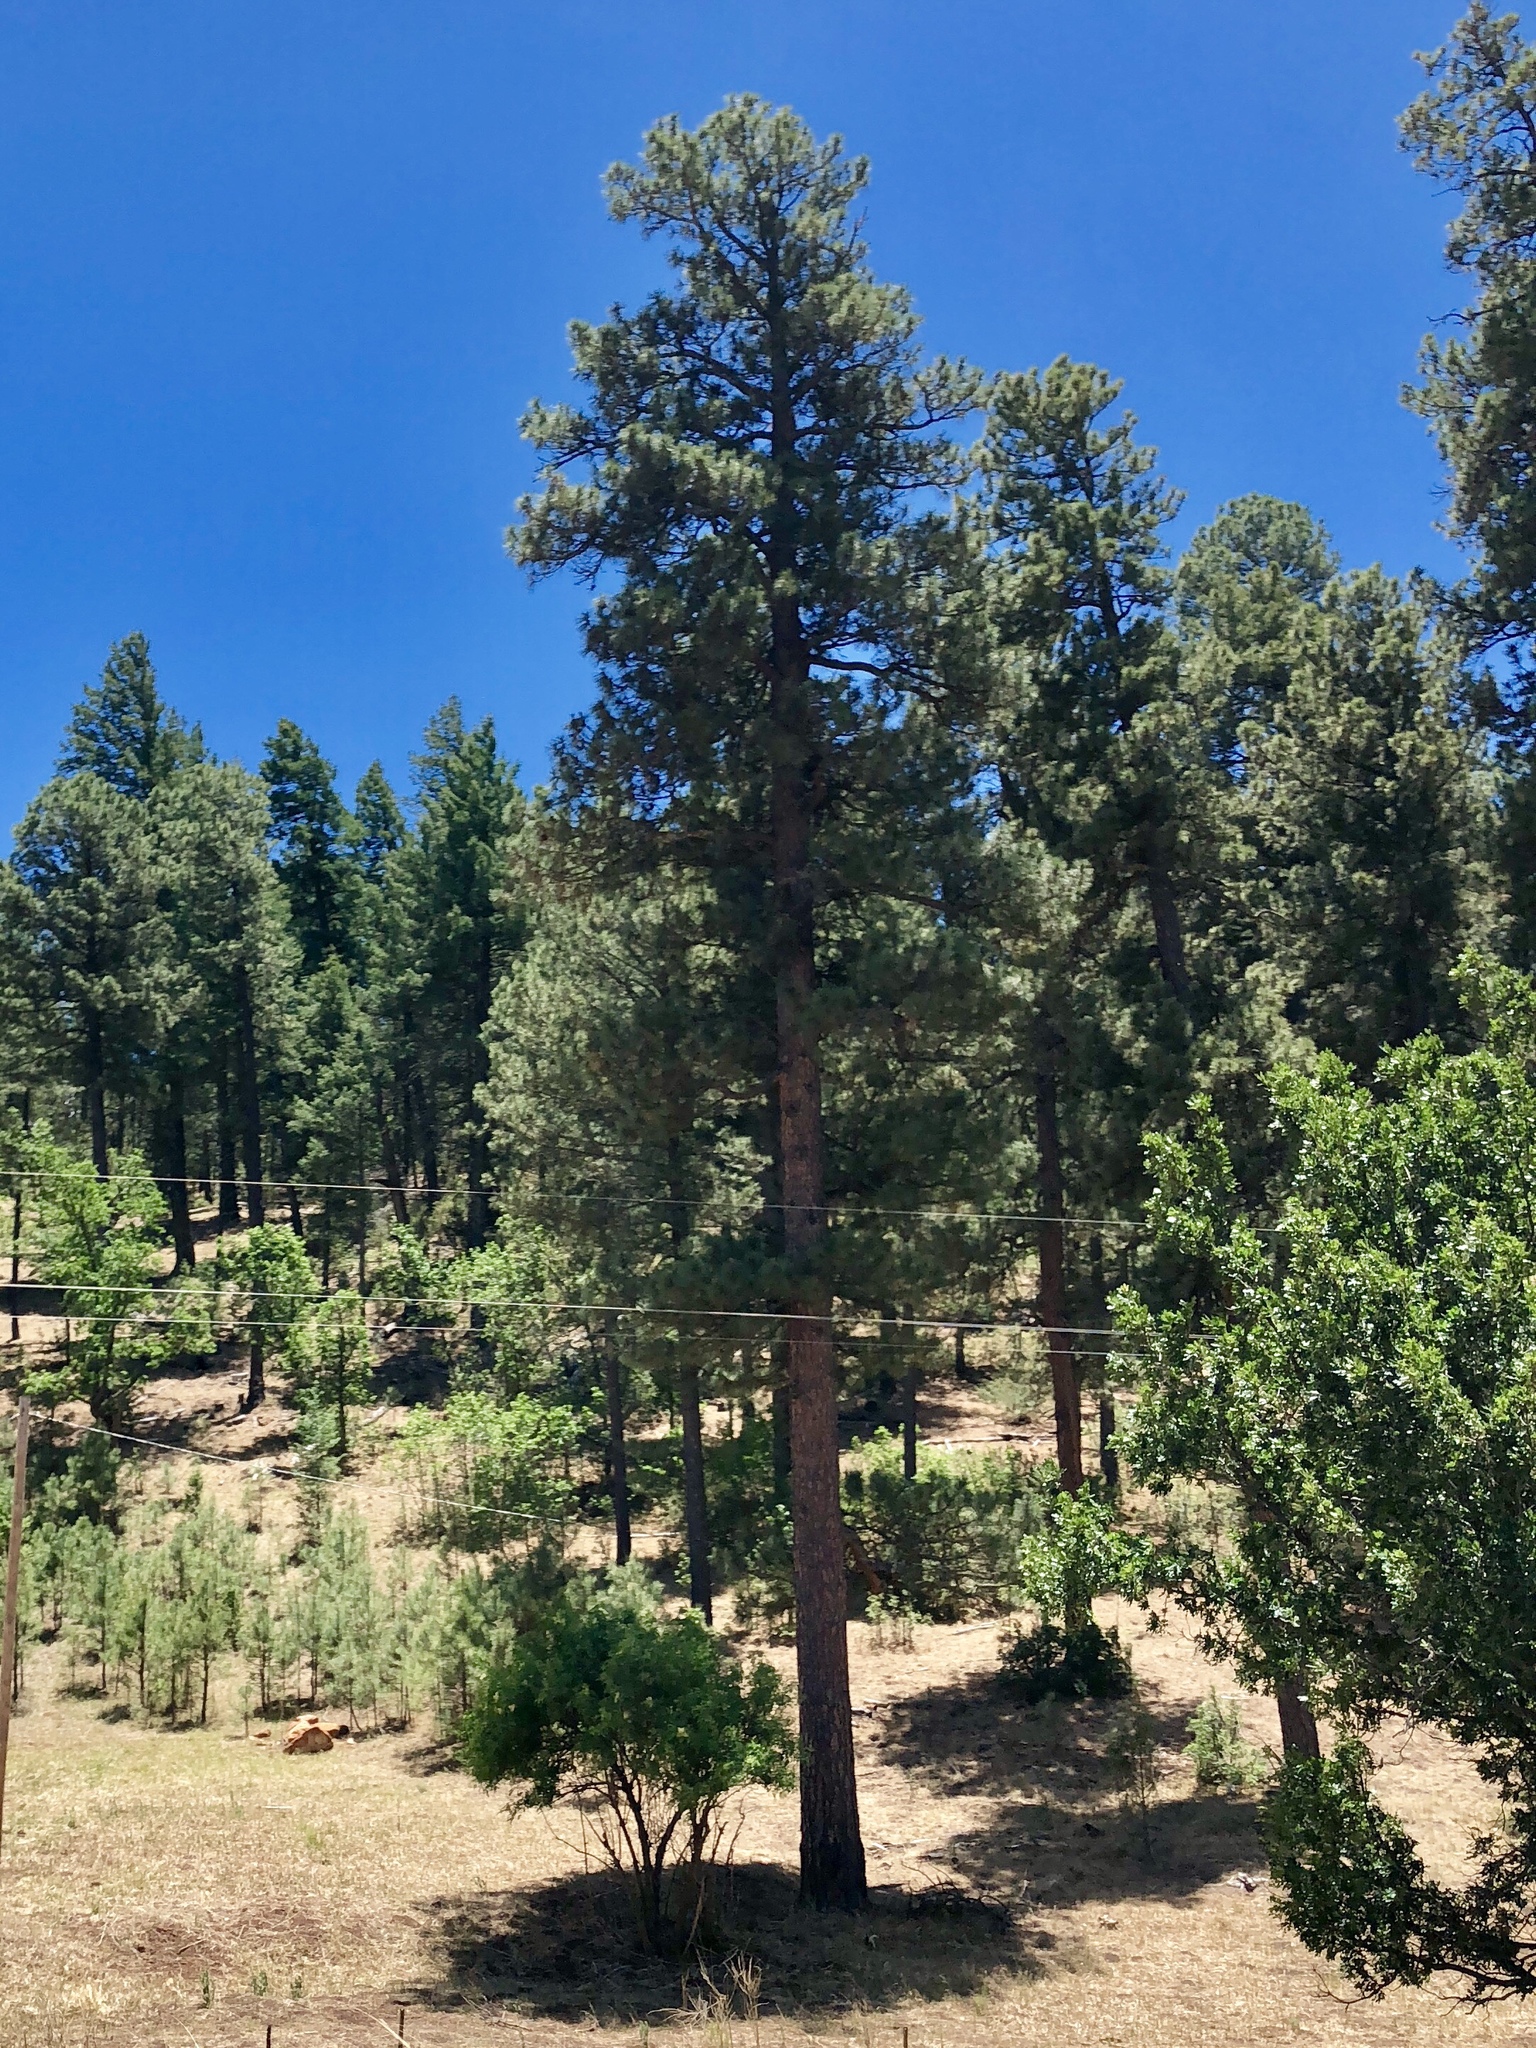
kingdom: Plantae
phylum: Tracheophyta
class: Pinopsida
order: Pinales
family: Pinaceae
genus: Pinus
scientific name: Pinus ponderosa
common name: Western yellow-pine
